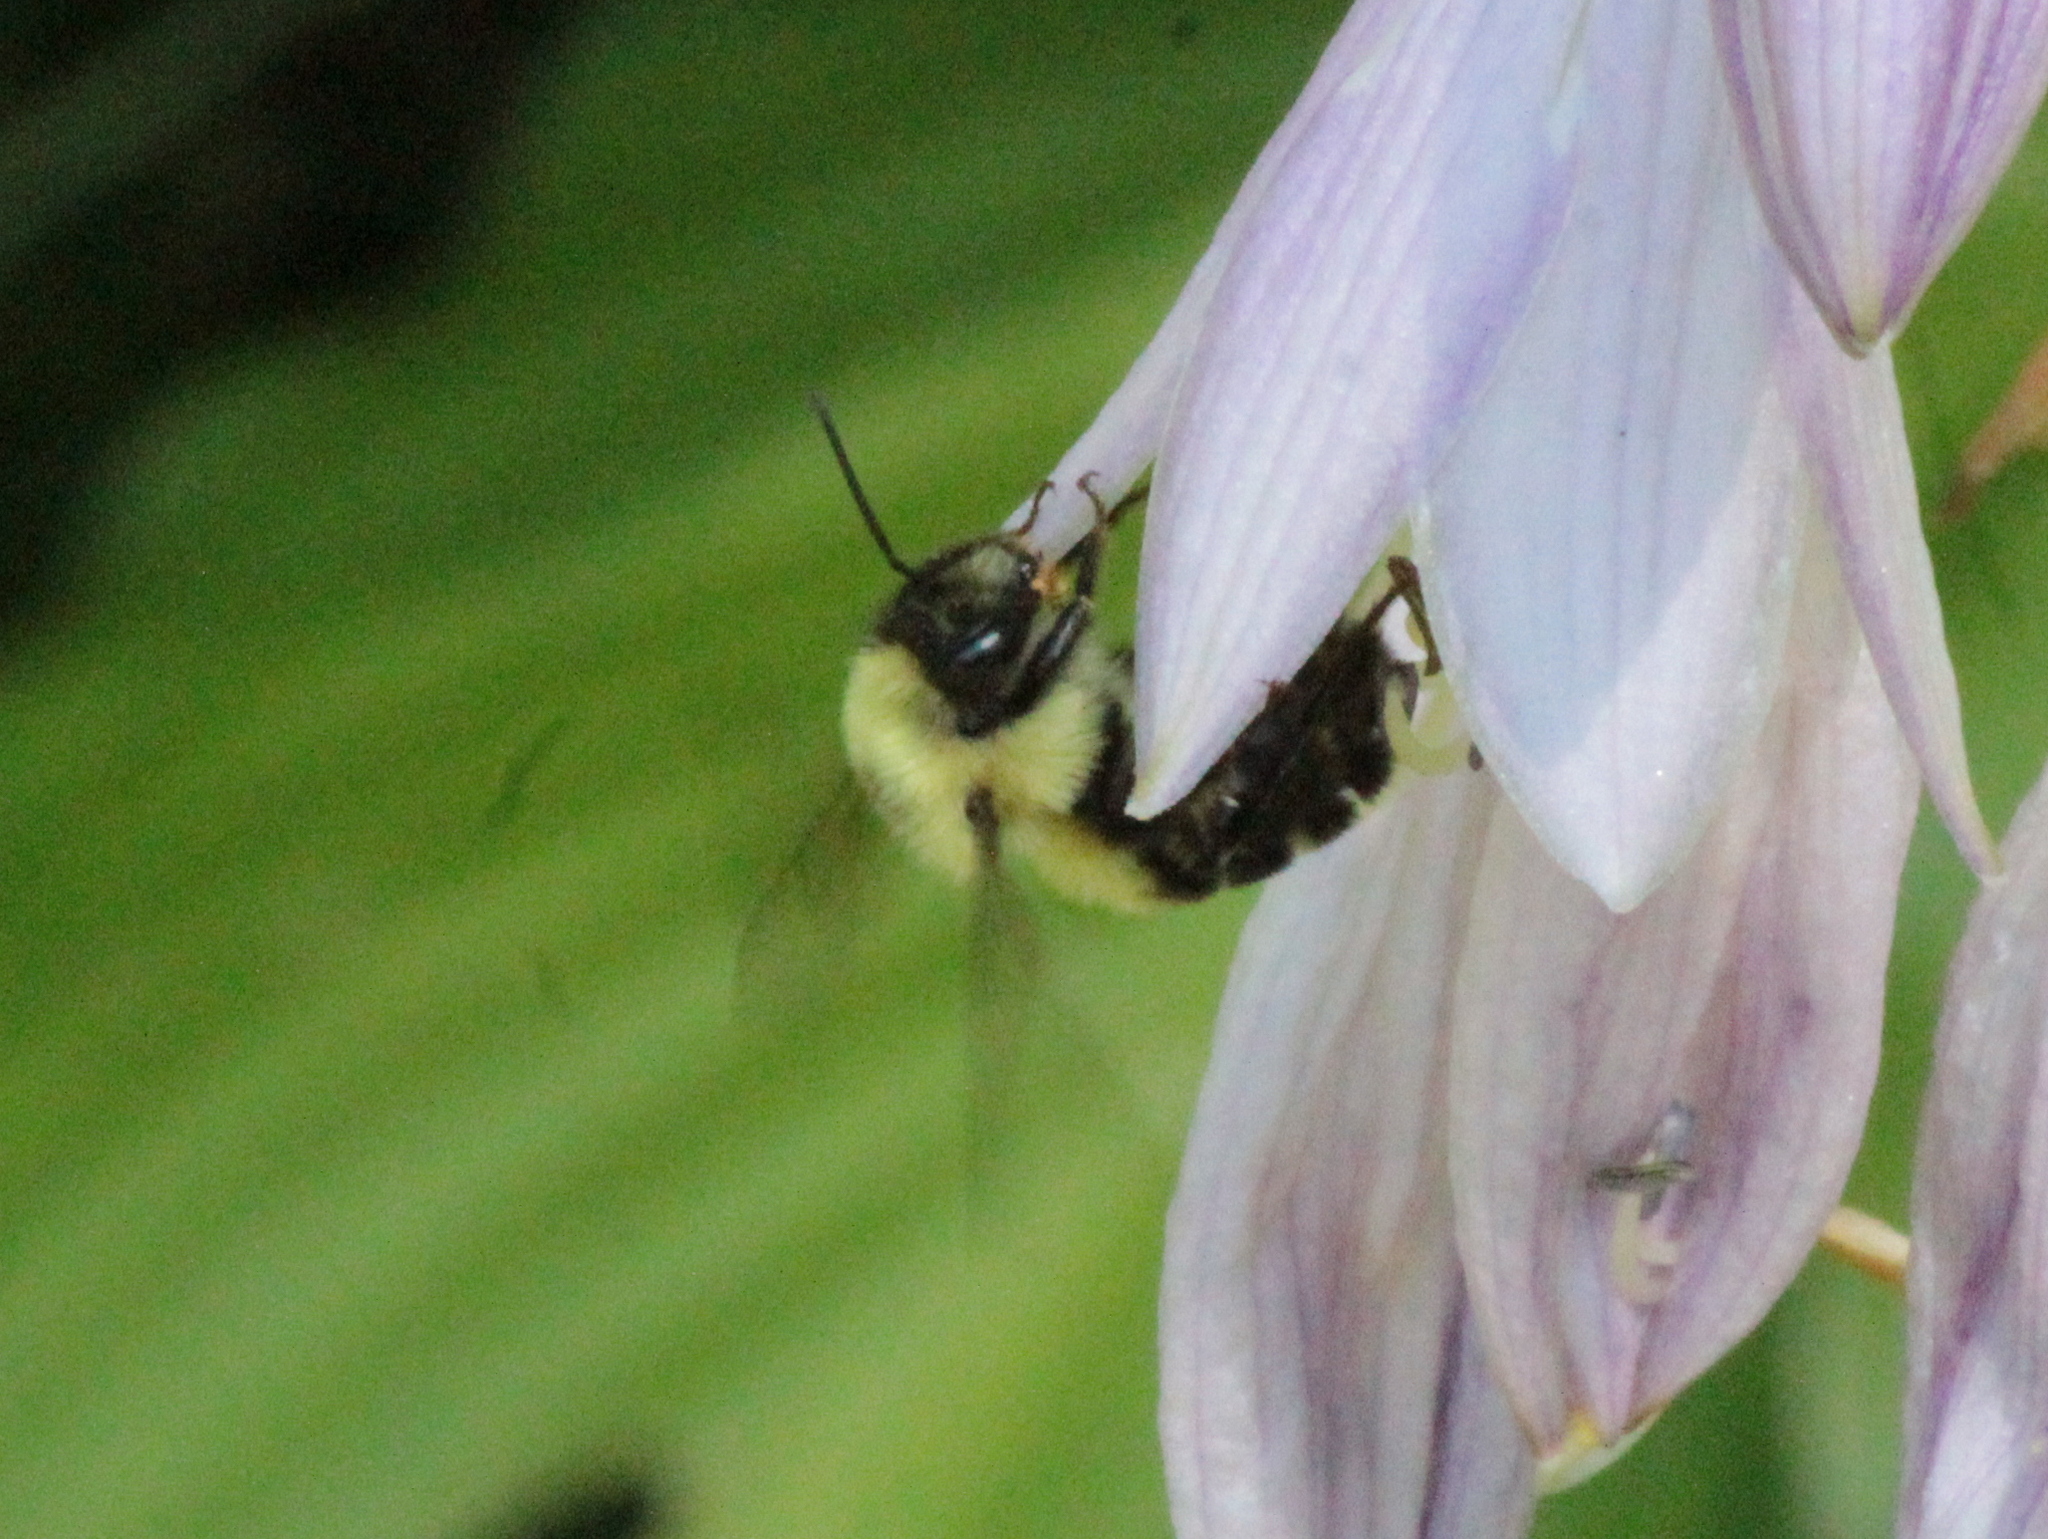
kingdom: Animalia
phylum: Arthropoda
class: Insecta
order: Hymenoptera
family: Apidae
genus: Bombus
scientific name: Bombus bimaculatus
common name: Two-spotted bumble bee
